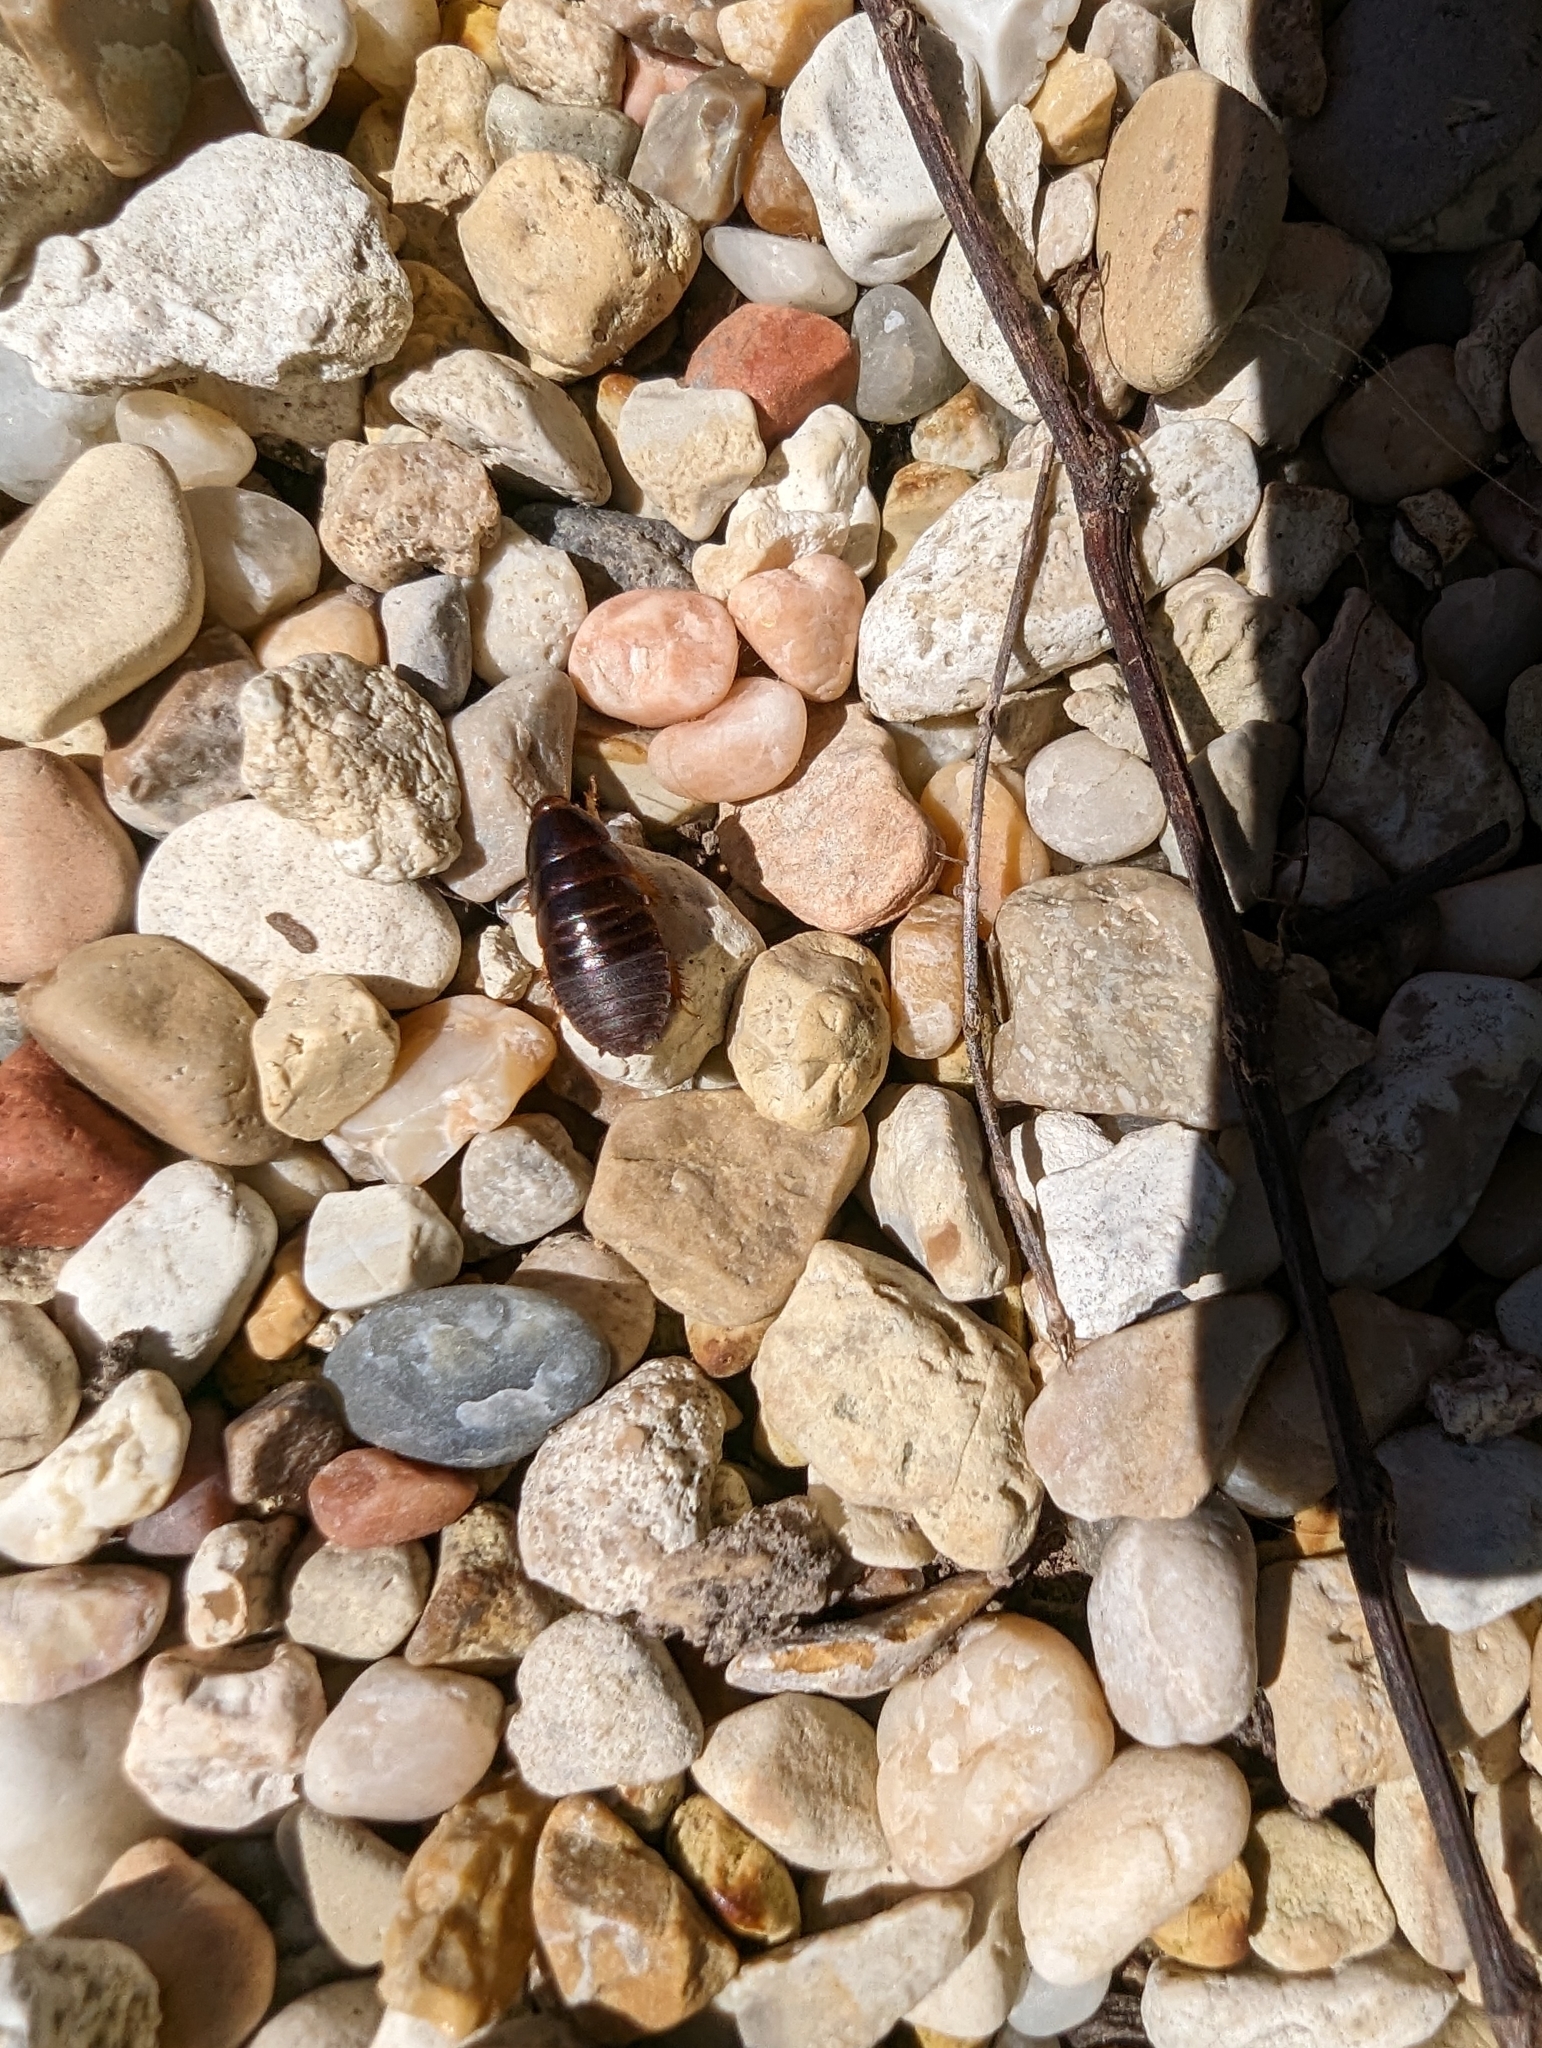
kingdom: Animalia
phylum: Arthropoda
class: Insecta
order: Blattodea
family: Blaberidae
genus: Pycnoscelus
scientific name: Pycnoscelus surinamensis
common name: Surinam cockroach
